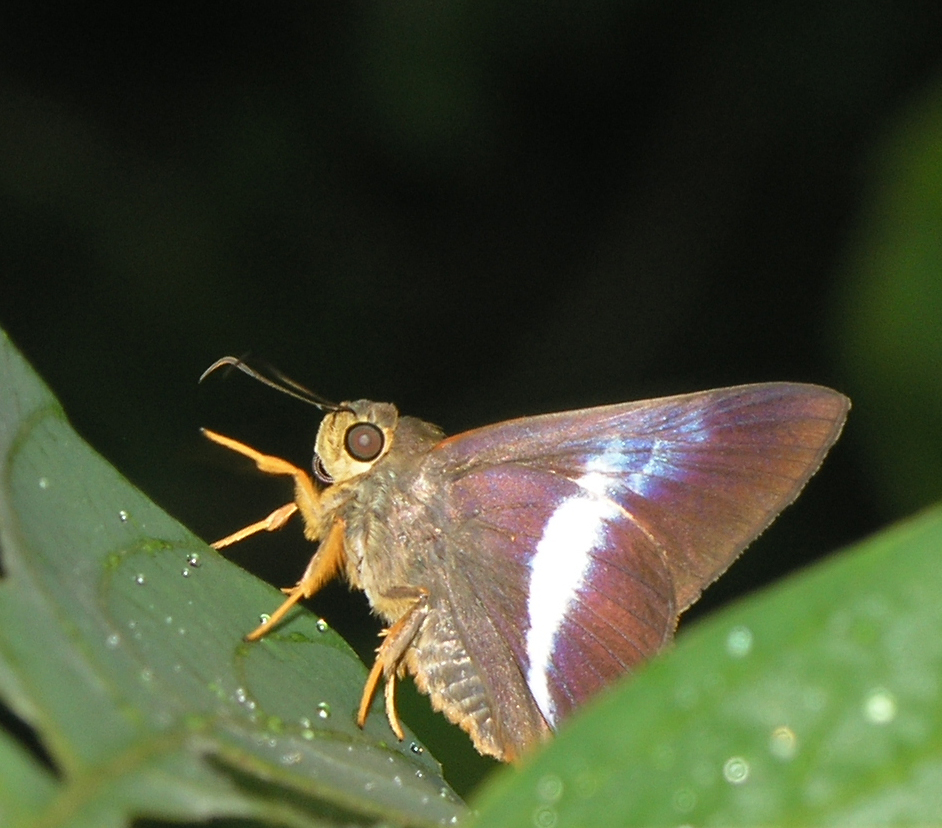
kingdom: Animalia
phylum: Arthropoda
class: Insecta
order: Lepidoptera
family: Hesperiidae
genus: Bibasis
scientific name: Bibasis sena
